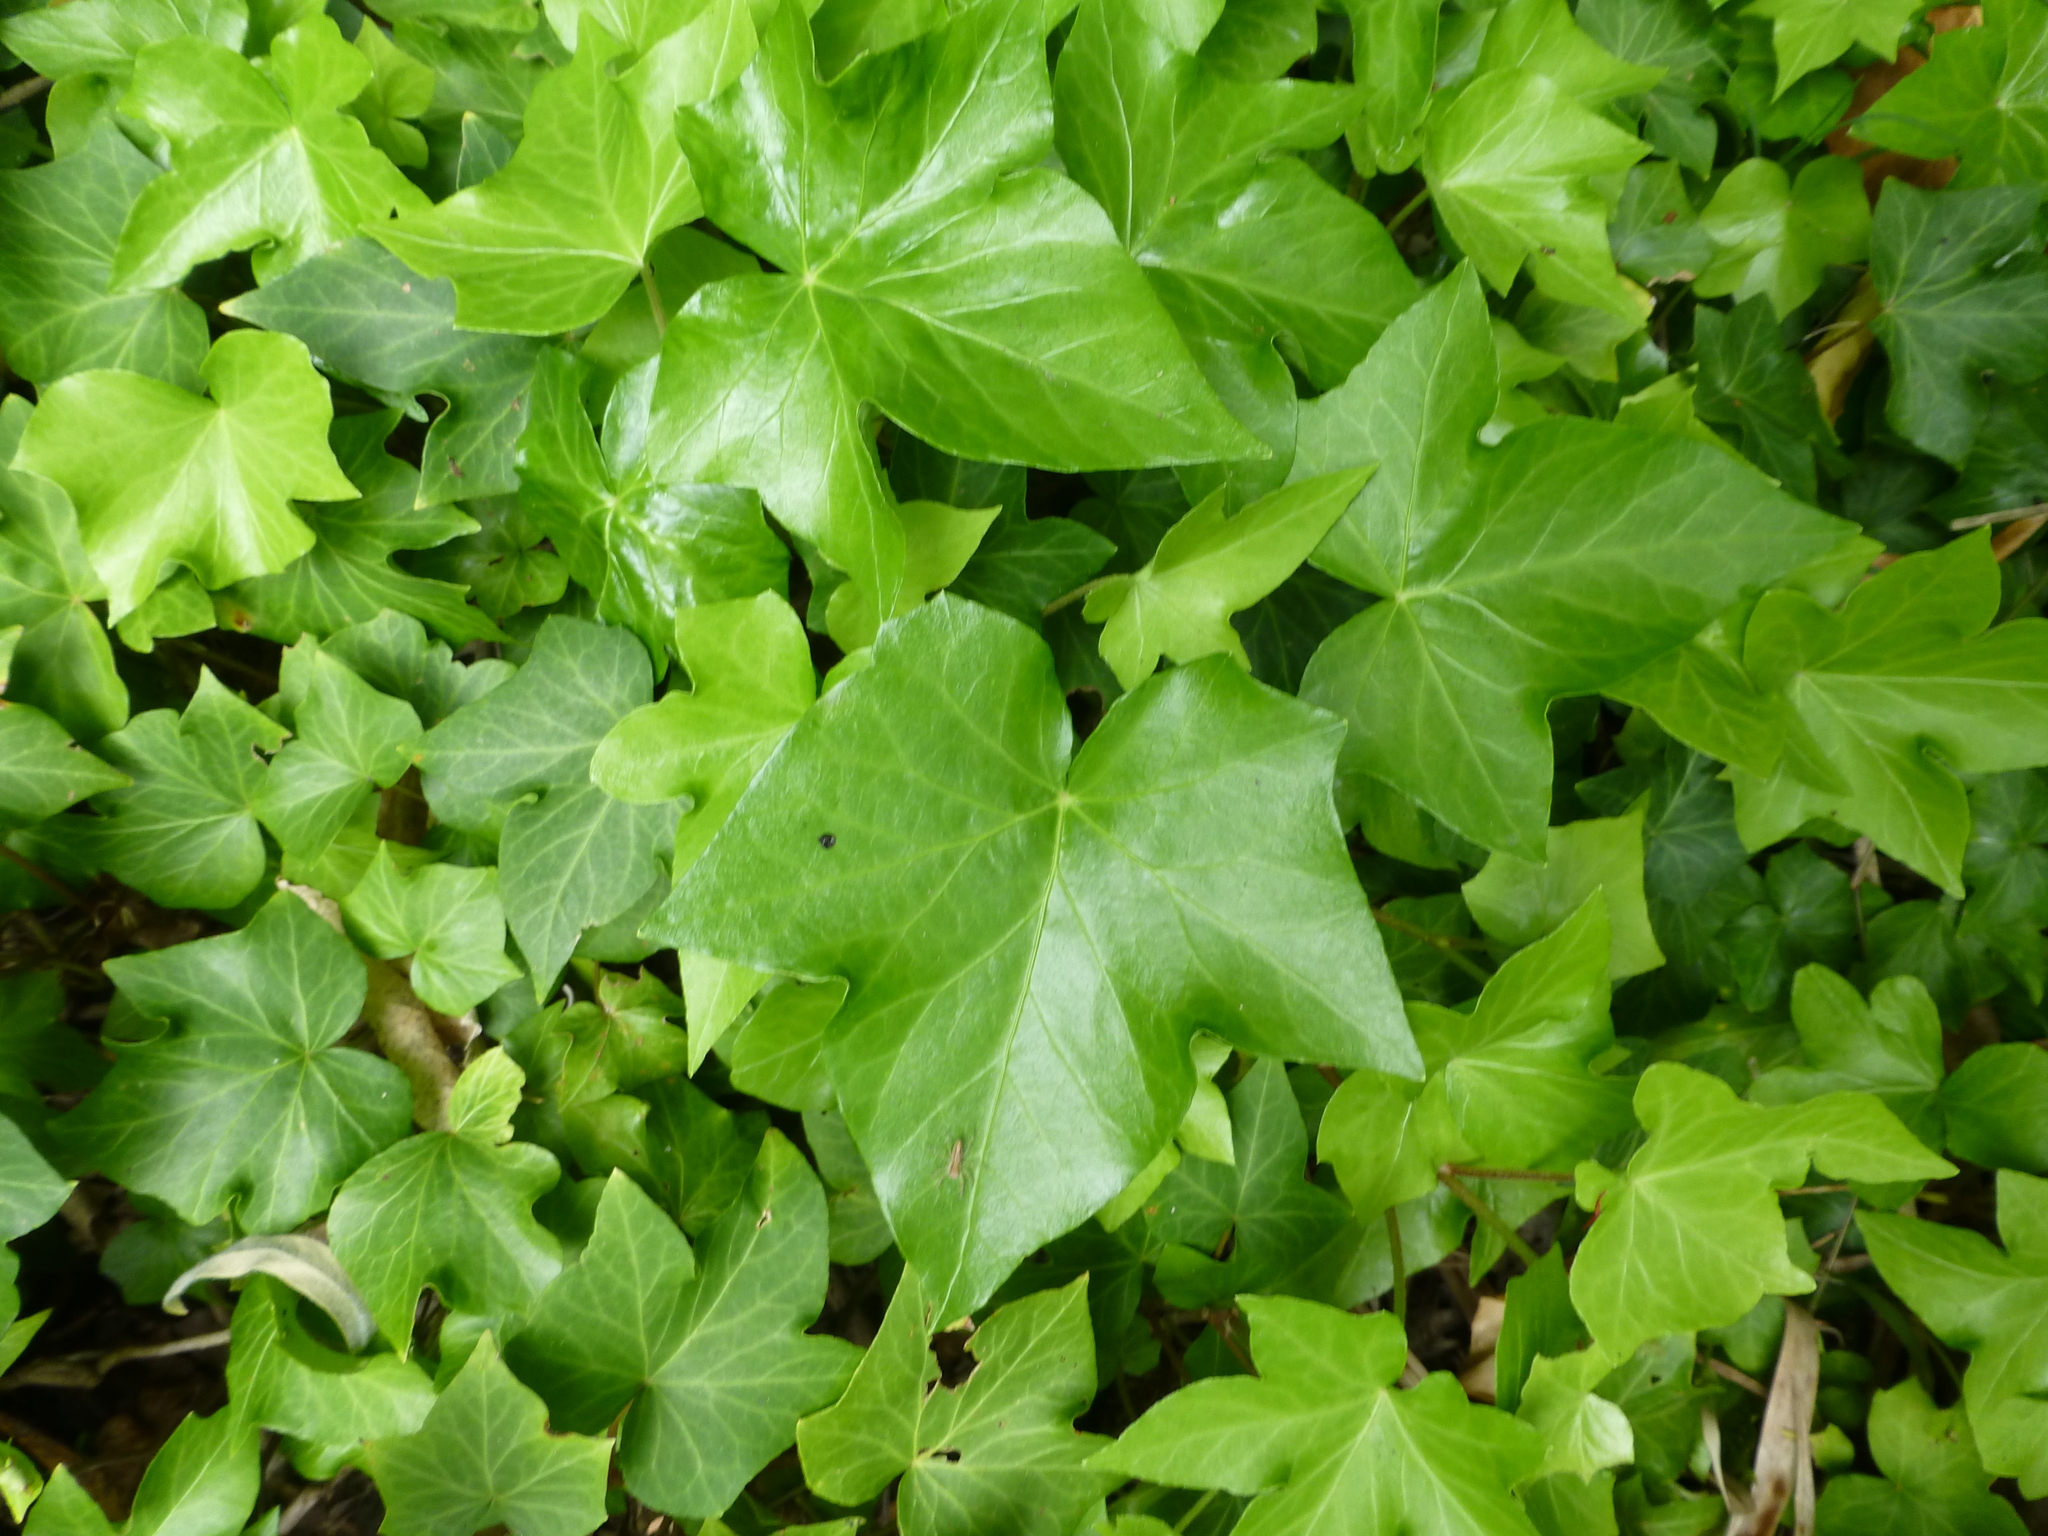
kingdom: Plantae
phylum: Tracheophyta
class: Magnoliopsida
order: Apiales
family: Araliaceae
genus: Hedera
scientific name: Hedera helix
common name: Ivy
